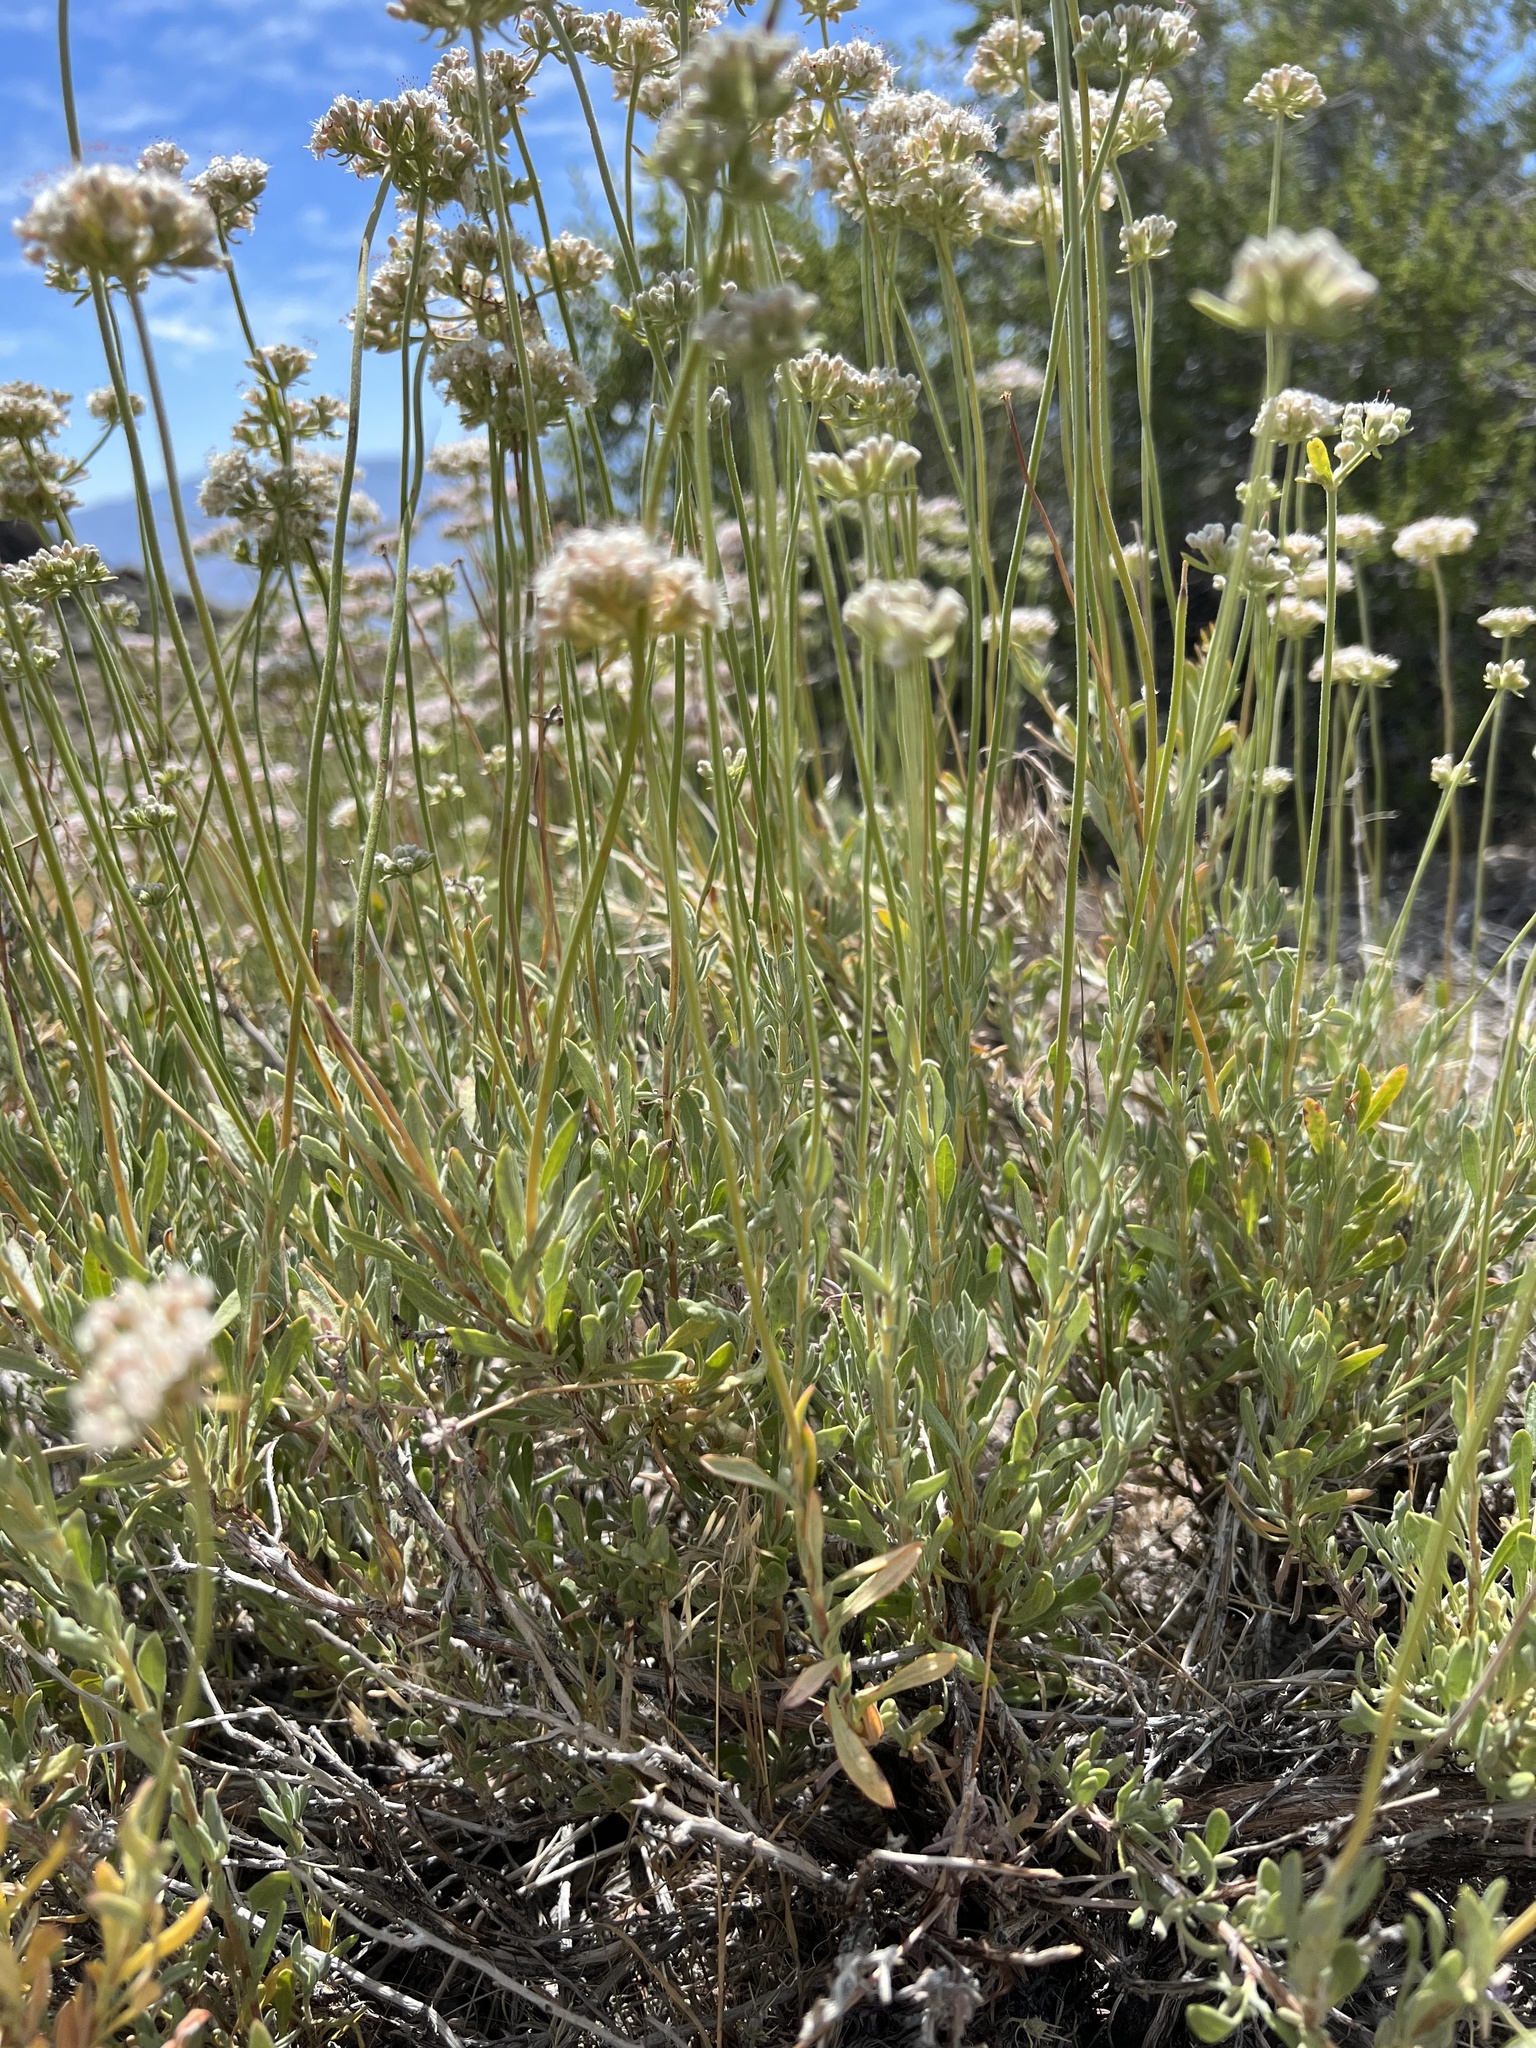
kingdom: Plantae
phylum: Tracheophyta
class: Magnoliopsida
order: Caryophyllales
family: Polygonaceae
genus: Eriogonum
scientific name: Eriogonum fasciculatum
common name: California wild buckwheat
